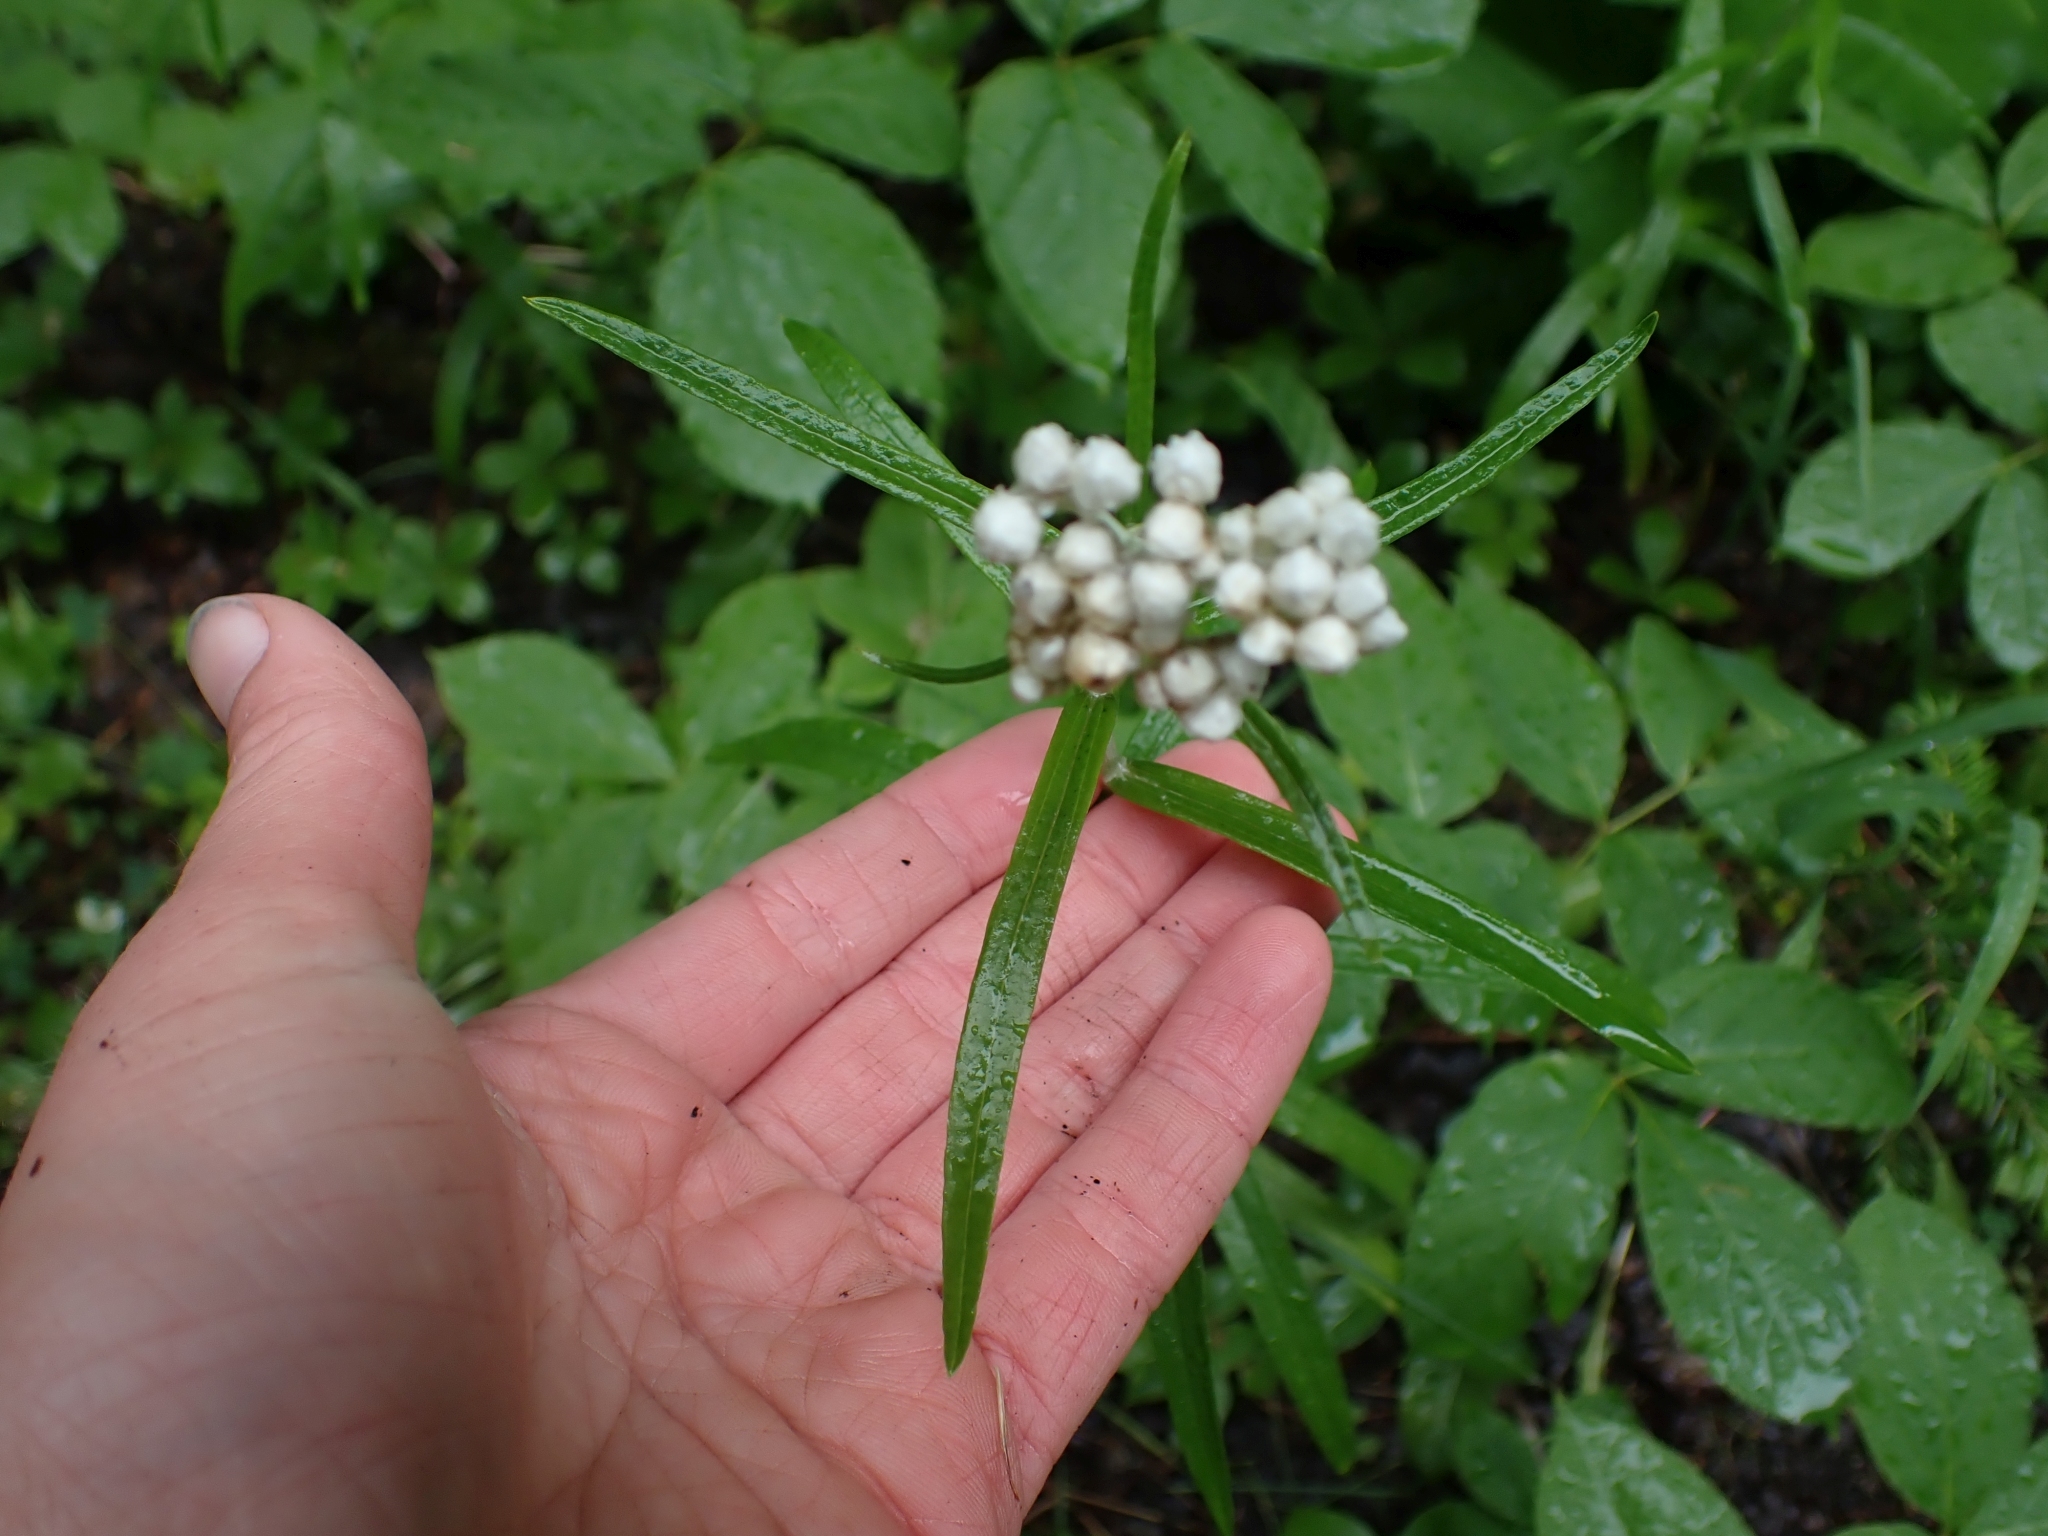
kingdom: Plantae
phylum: Tracheophyta
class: Magnoliopsida
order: Asterales
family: Asteraceae
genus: Anaphalis
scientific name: Anaphalis margaritacea
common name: Pearly everlasting
